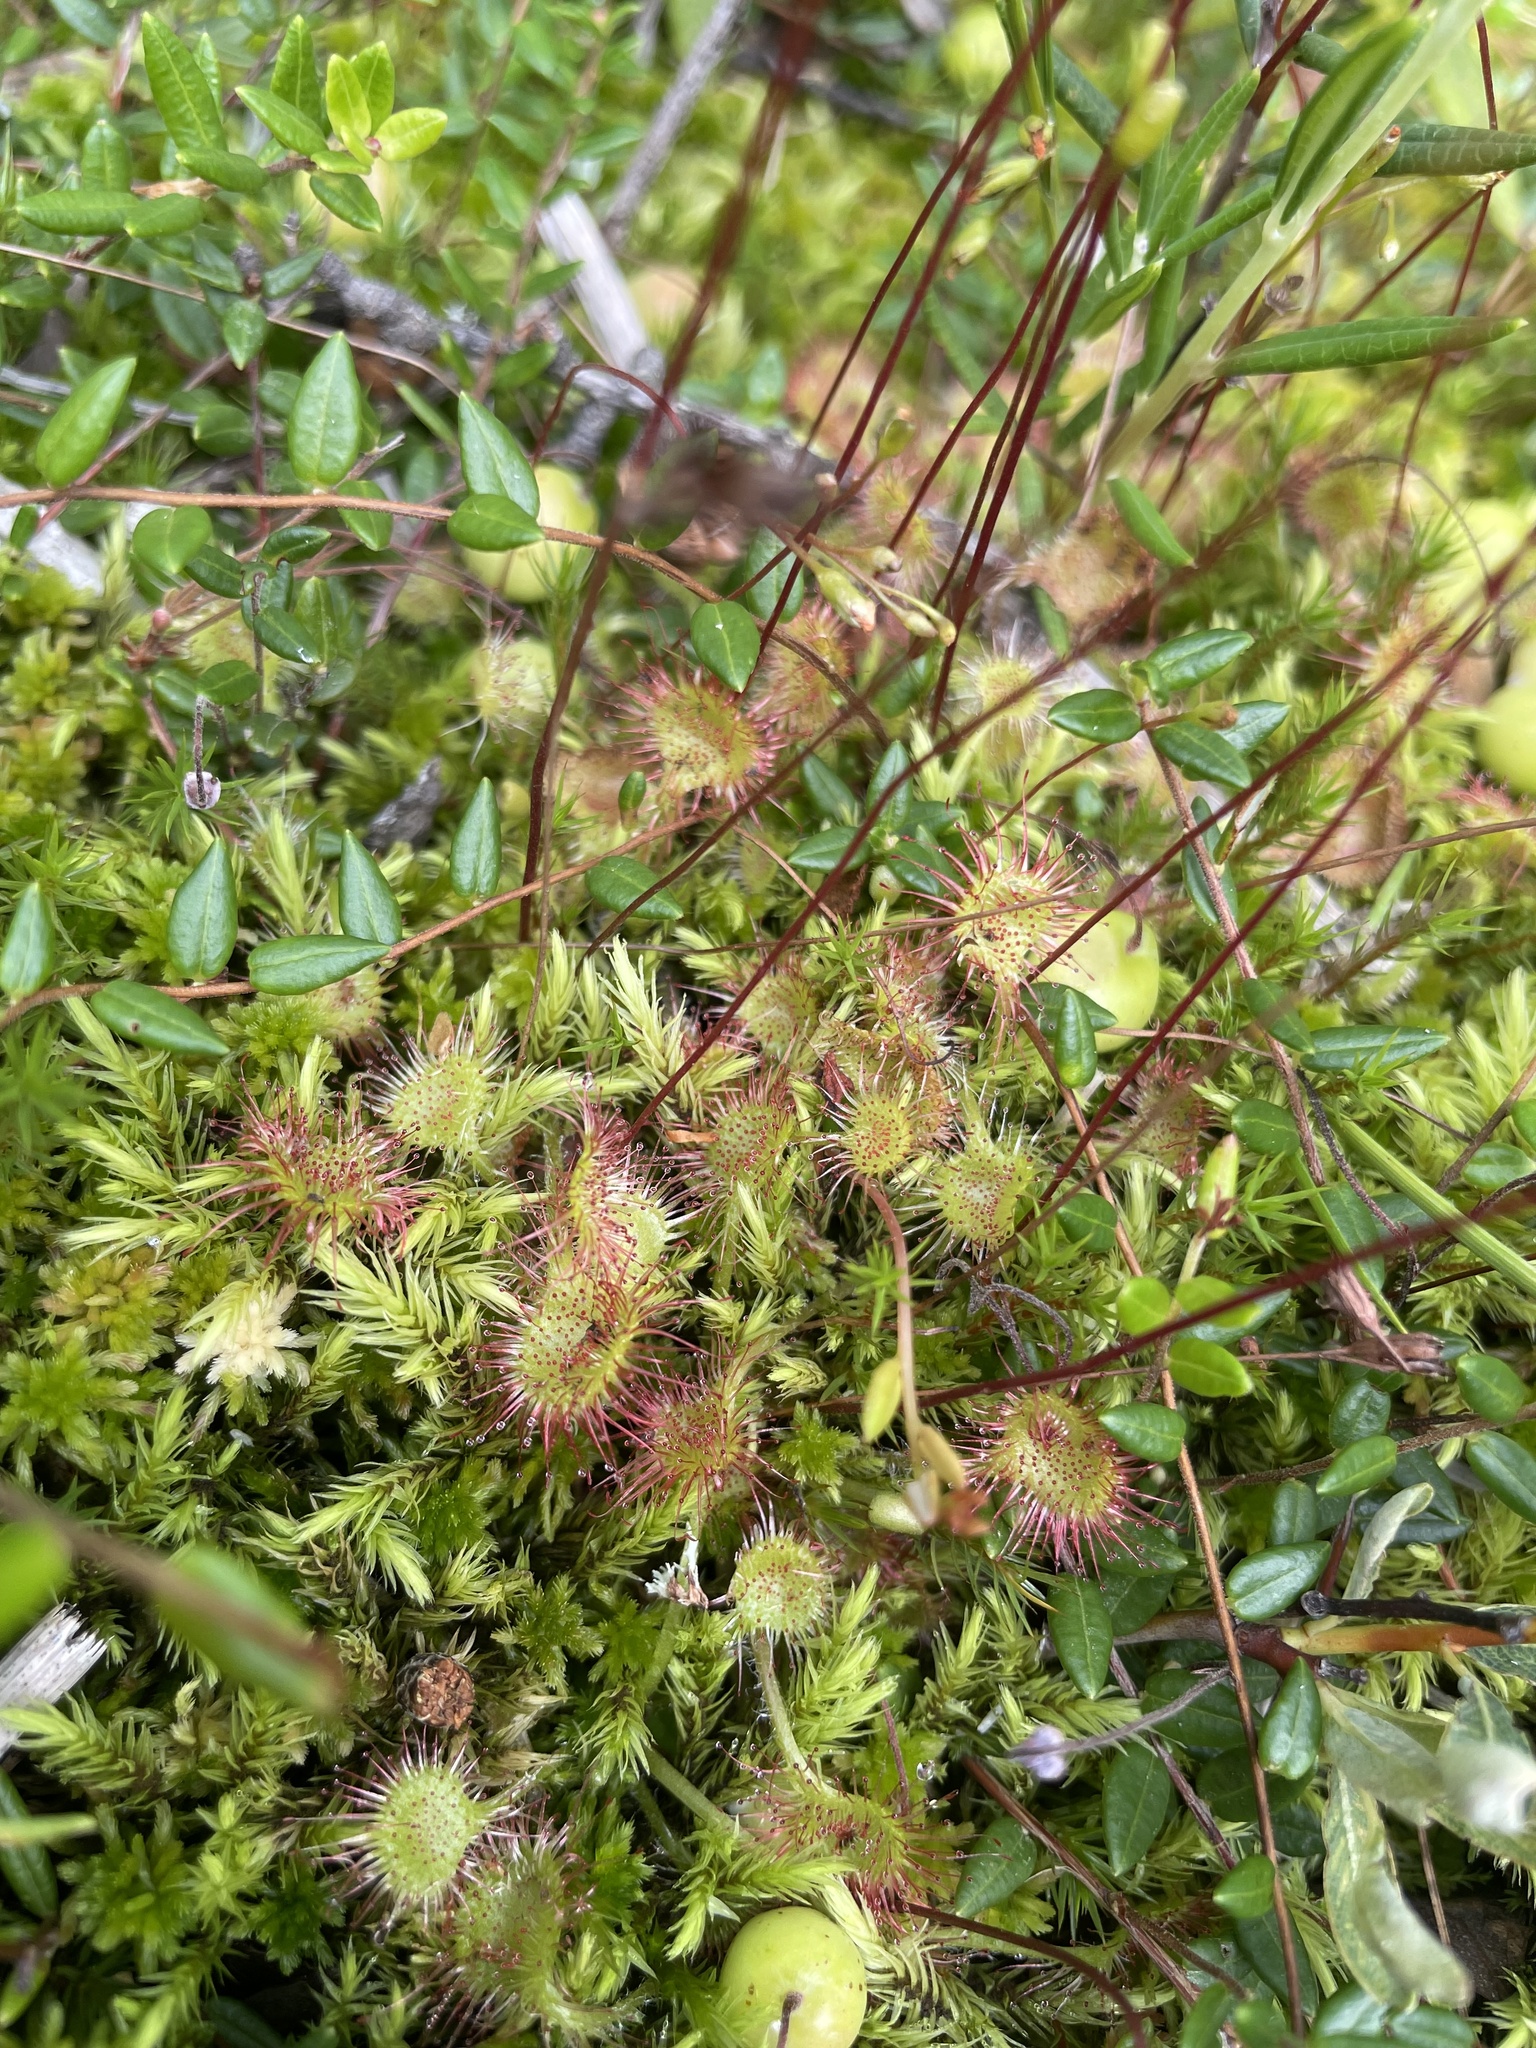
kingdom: Plantae
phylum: Tracheophyta
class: Magnoliopsida
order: Caryophyllales
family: Droseraceae
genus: Drosera
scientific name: Drosera rotundifolia
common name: Round-leaved sundew
